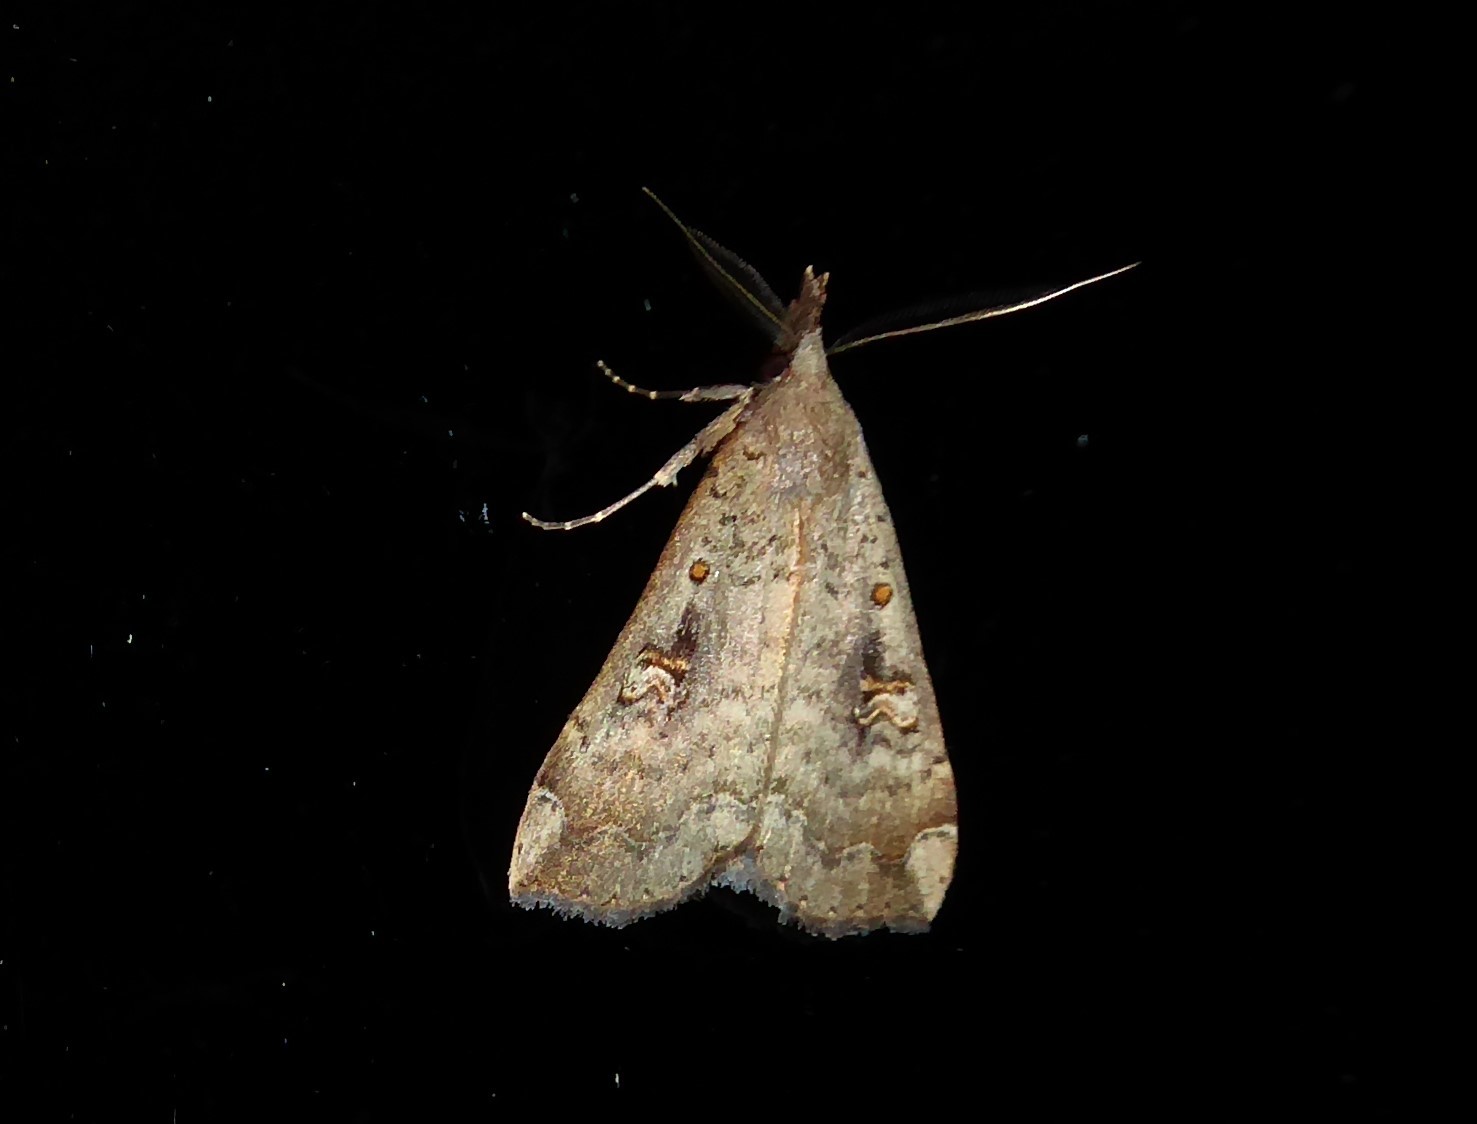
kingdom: Animalia
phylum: Arthropoda
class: Insecta
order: Lepidoptera
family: Erebidae
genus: Rhapsa
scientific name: Rhapsa scotosialis
